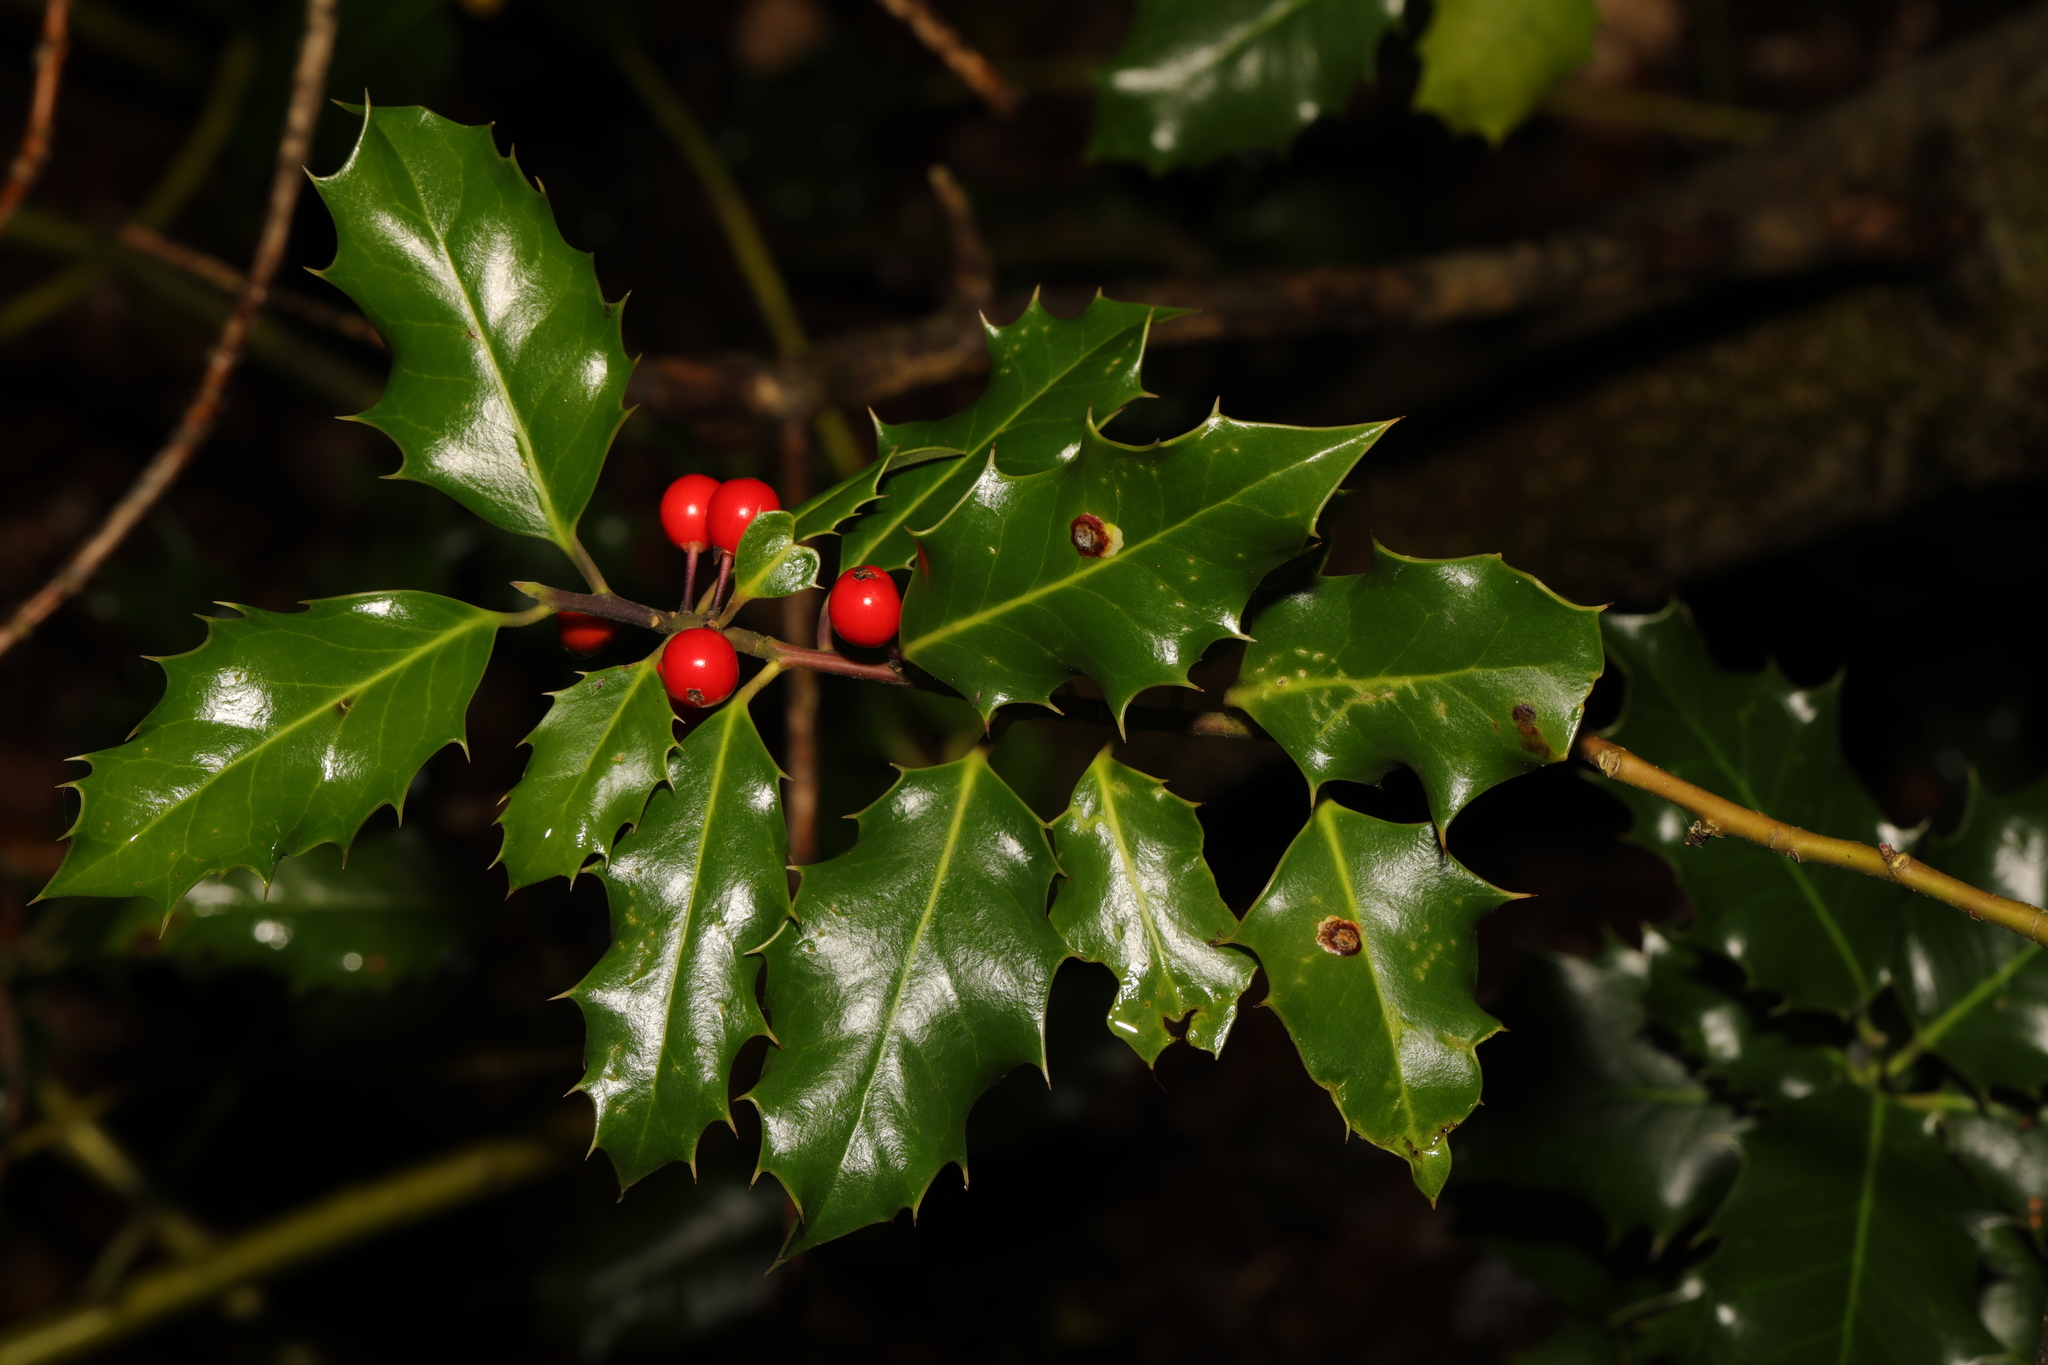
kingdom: Plantae
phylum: Tracheophyta
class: Magnoliopsida
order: Aquifoliales
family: Aquifoliaceae
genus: Ilex
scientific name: Ilex aquifolium
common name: English holly
